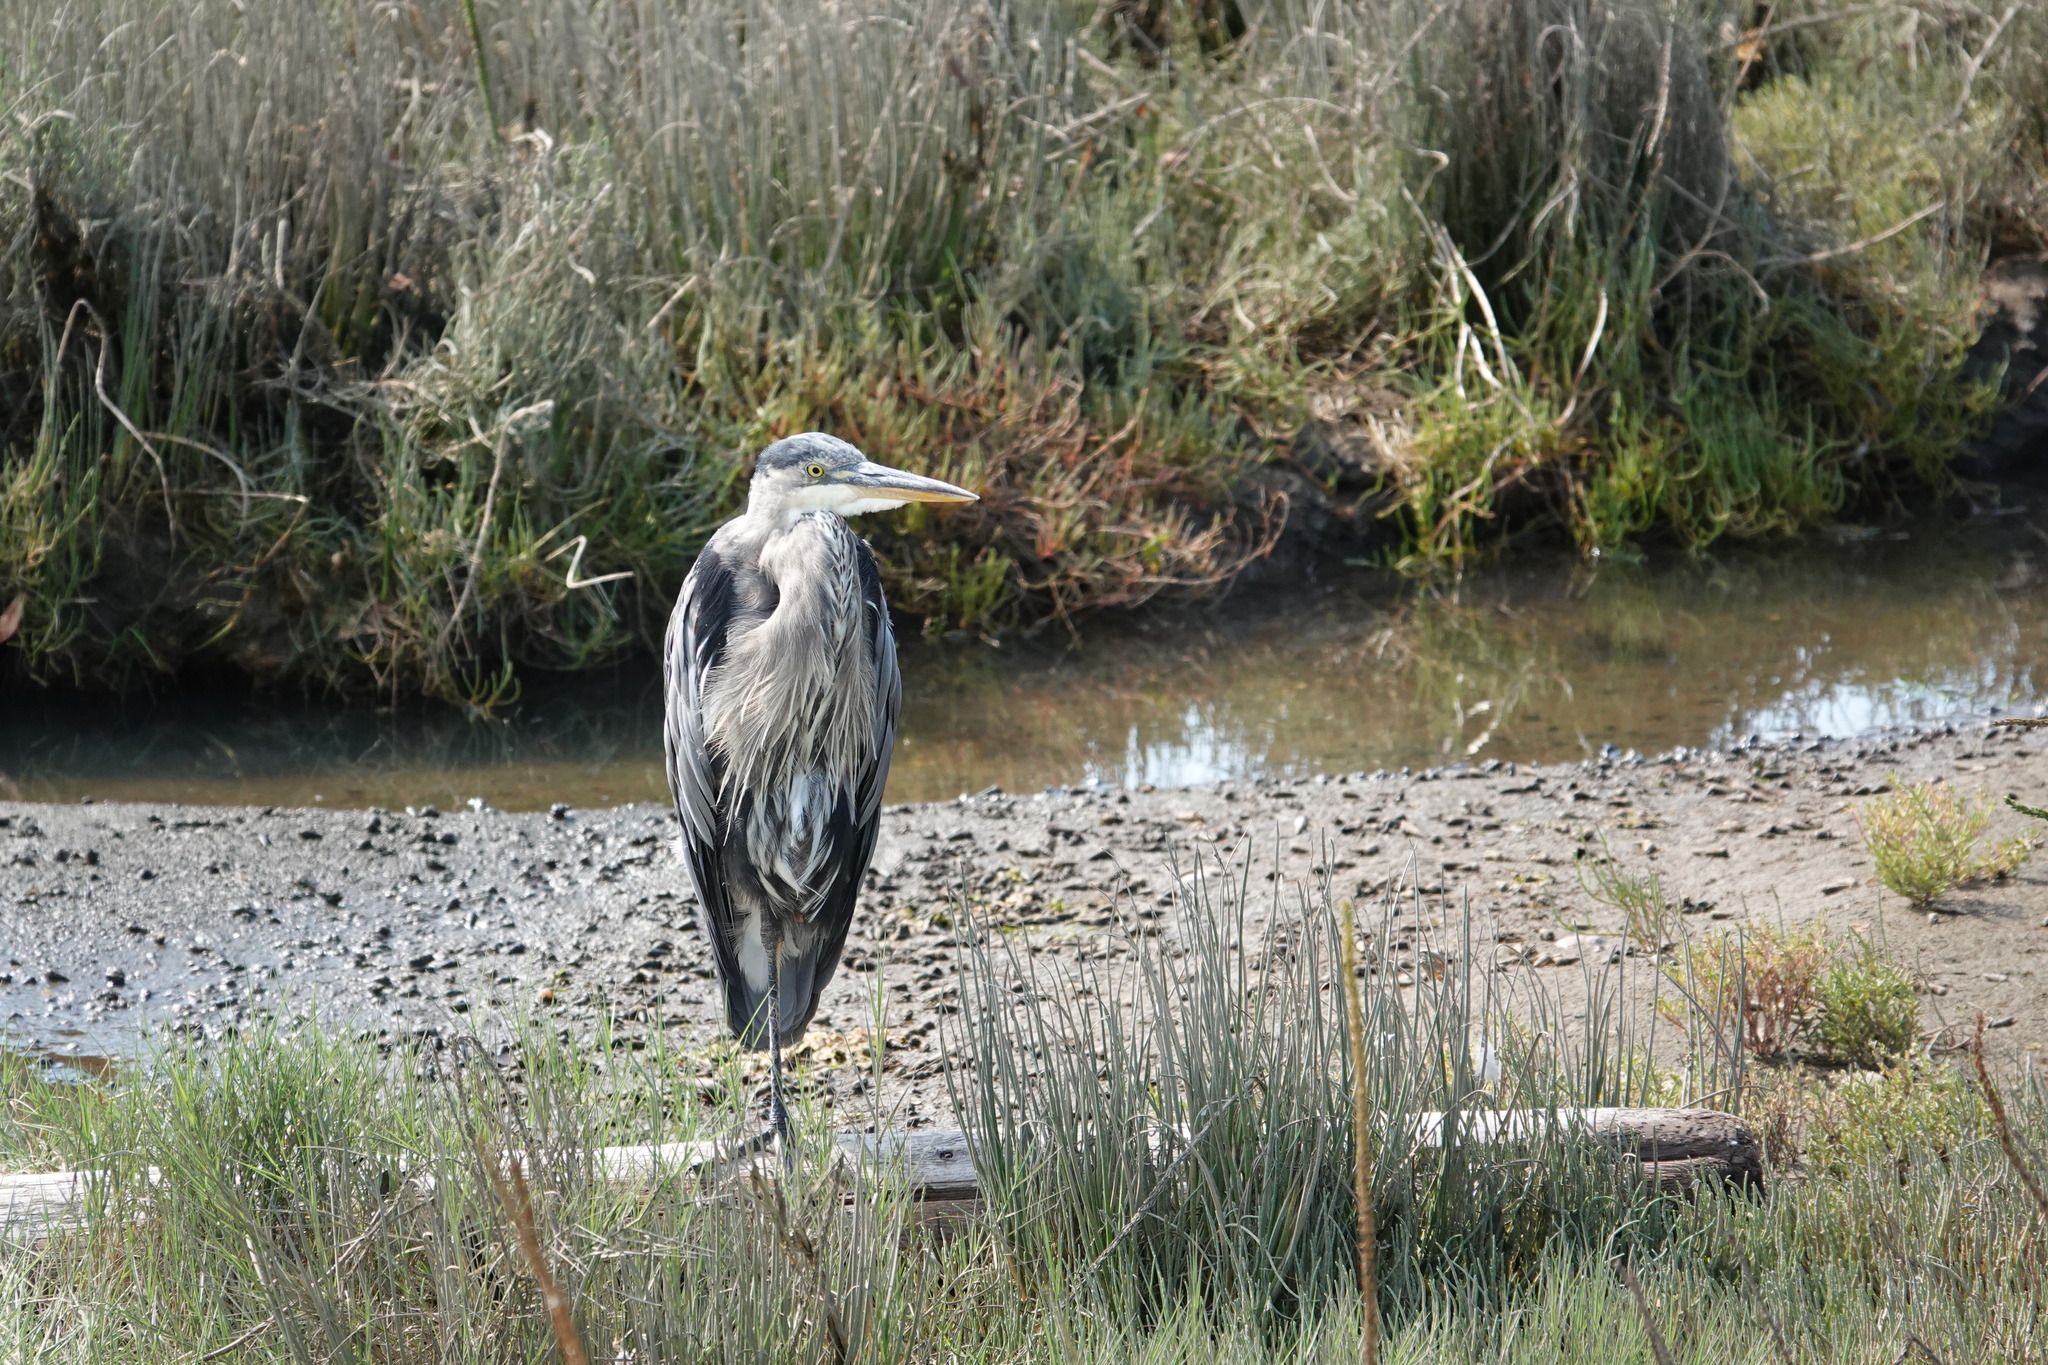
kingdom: Animalia
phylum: Chordata
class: Aves
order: Pelecaniformes
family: Ardeidae
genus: Ardea
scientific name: Ardea herodias
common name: Great blue heron
